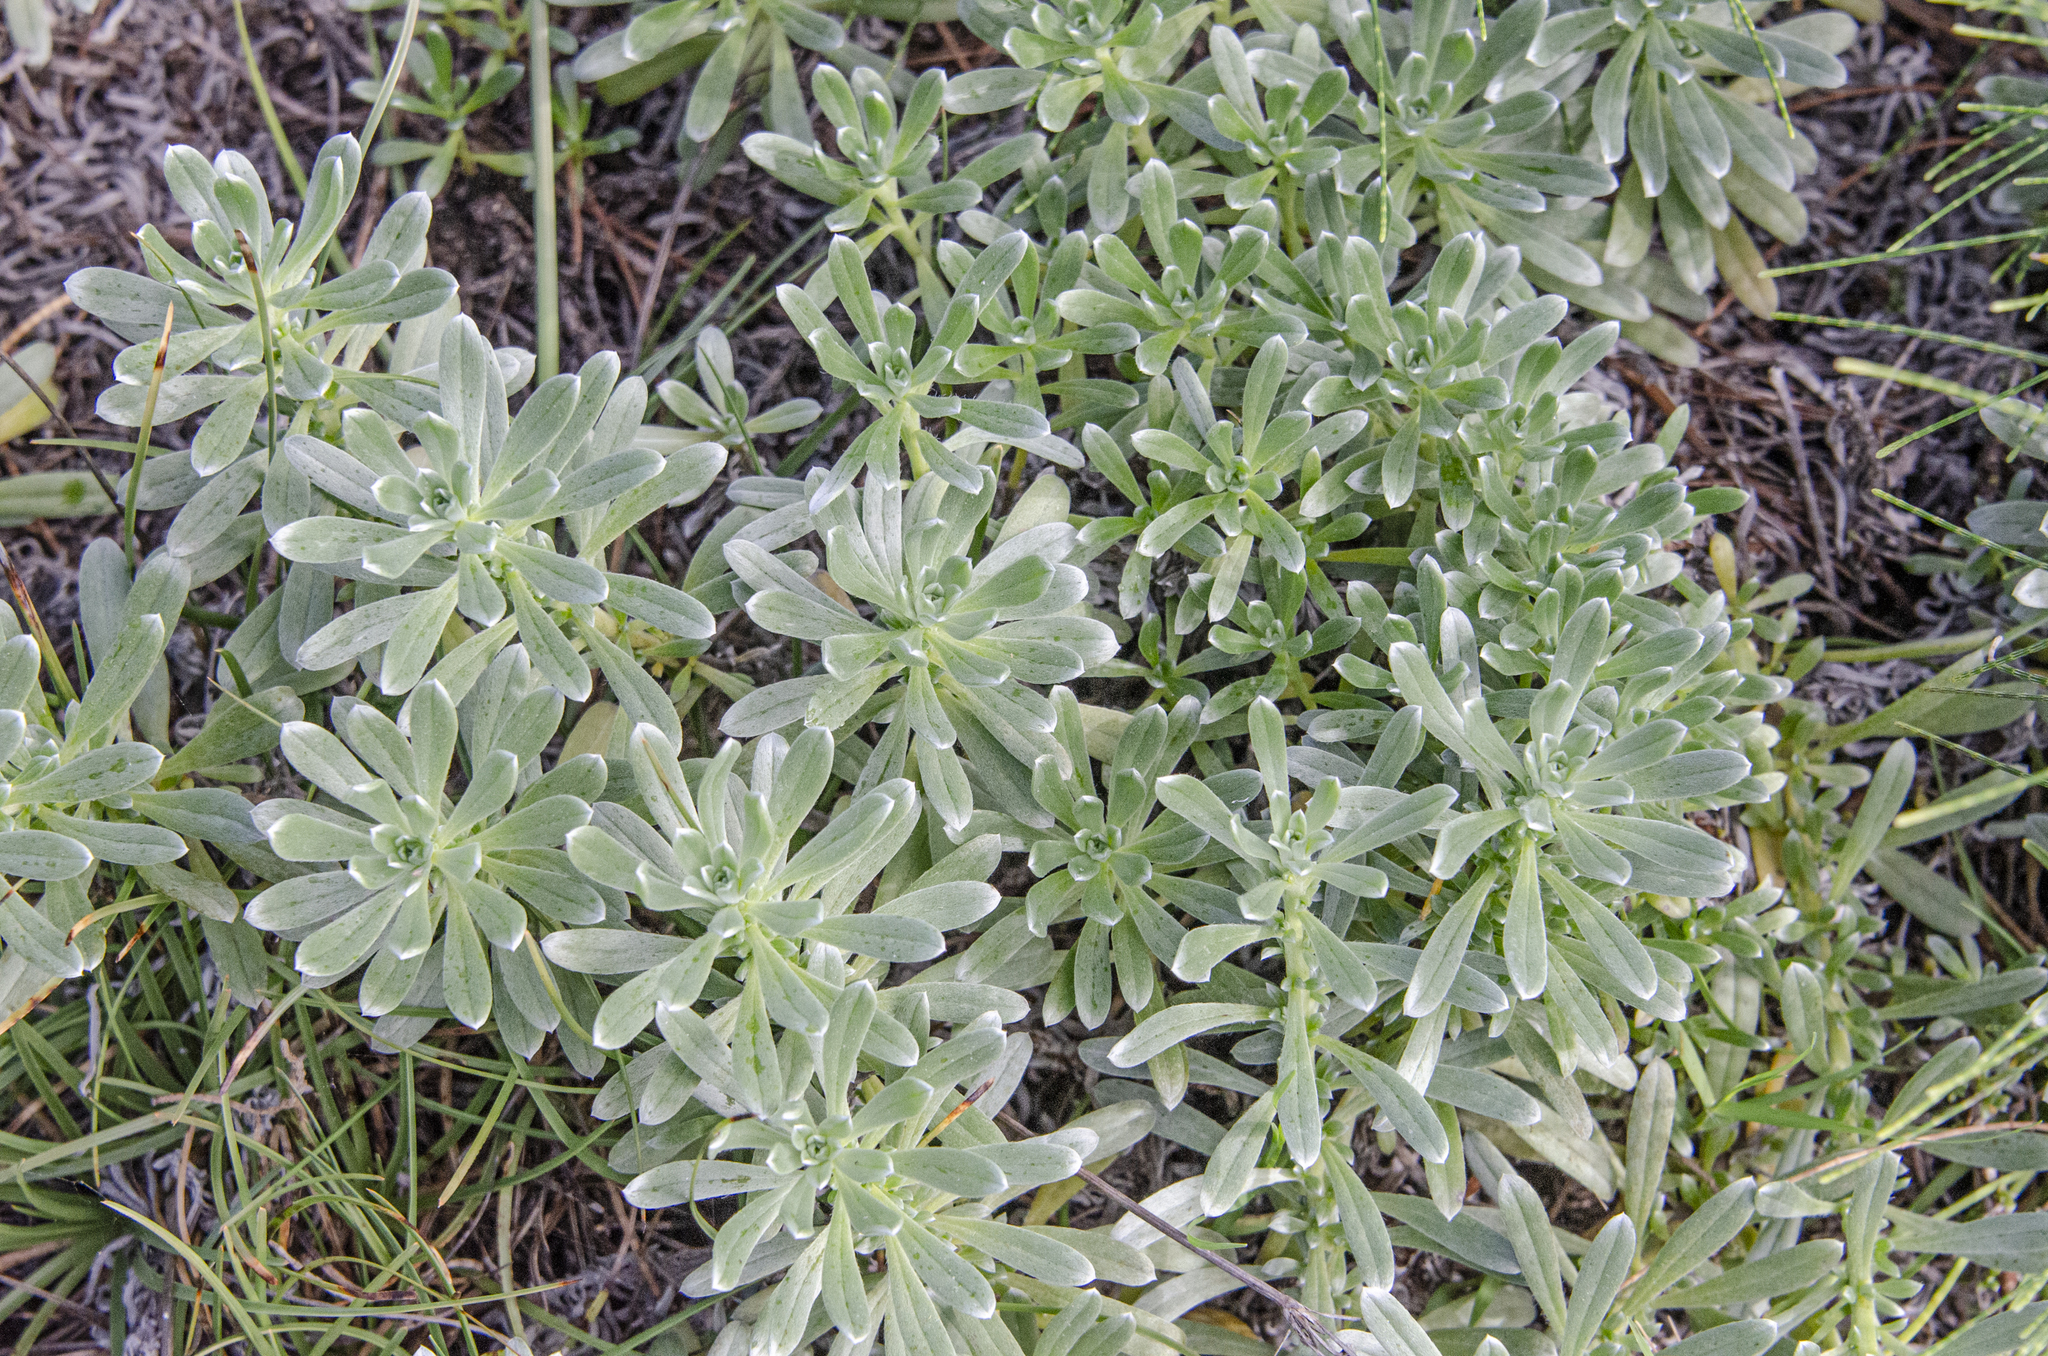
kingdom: Plantae
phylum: Tracheophyta
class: Magnoliopsida
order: Boraginales
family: Heliotropiaceae
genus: Heliotropium
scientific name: Heliotropium anomalum
